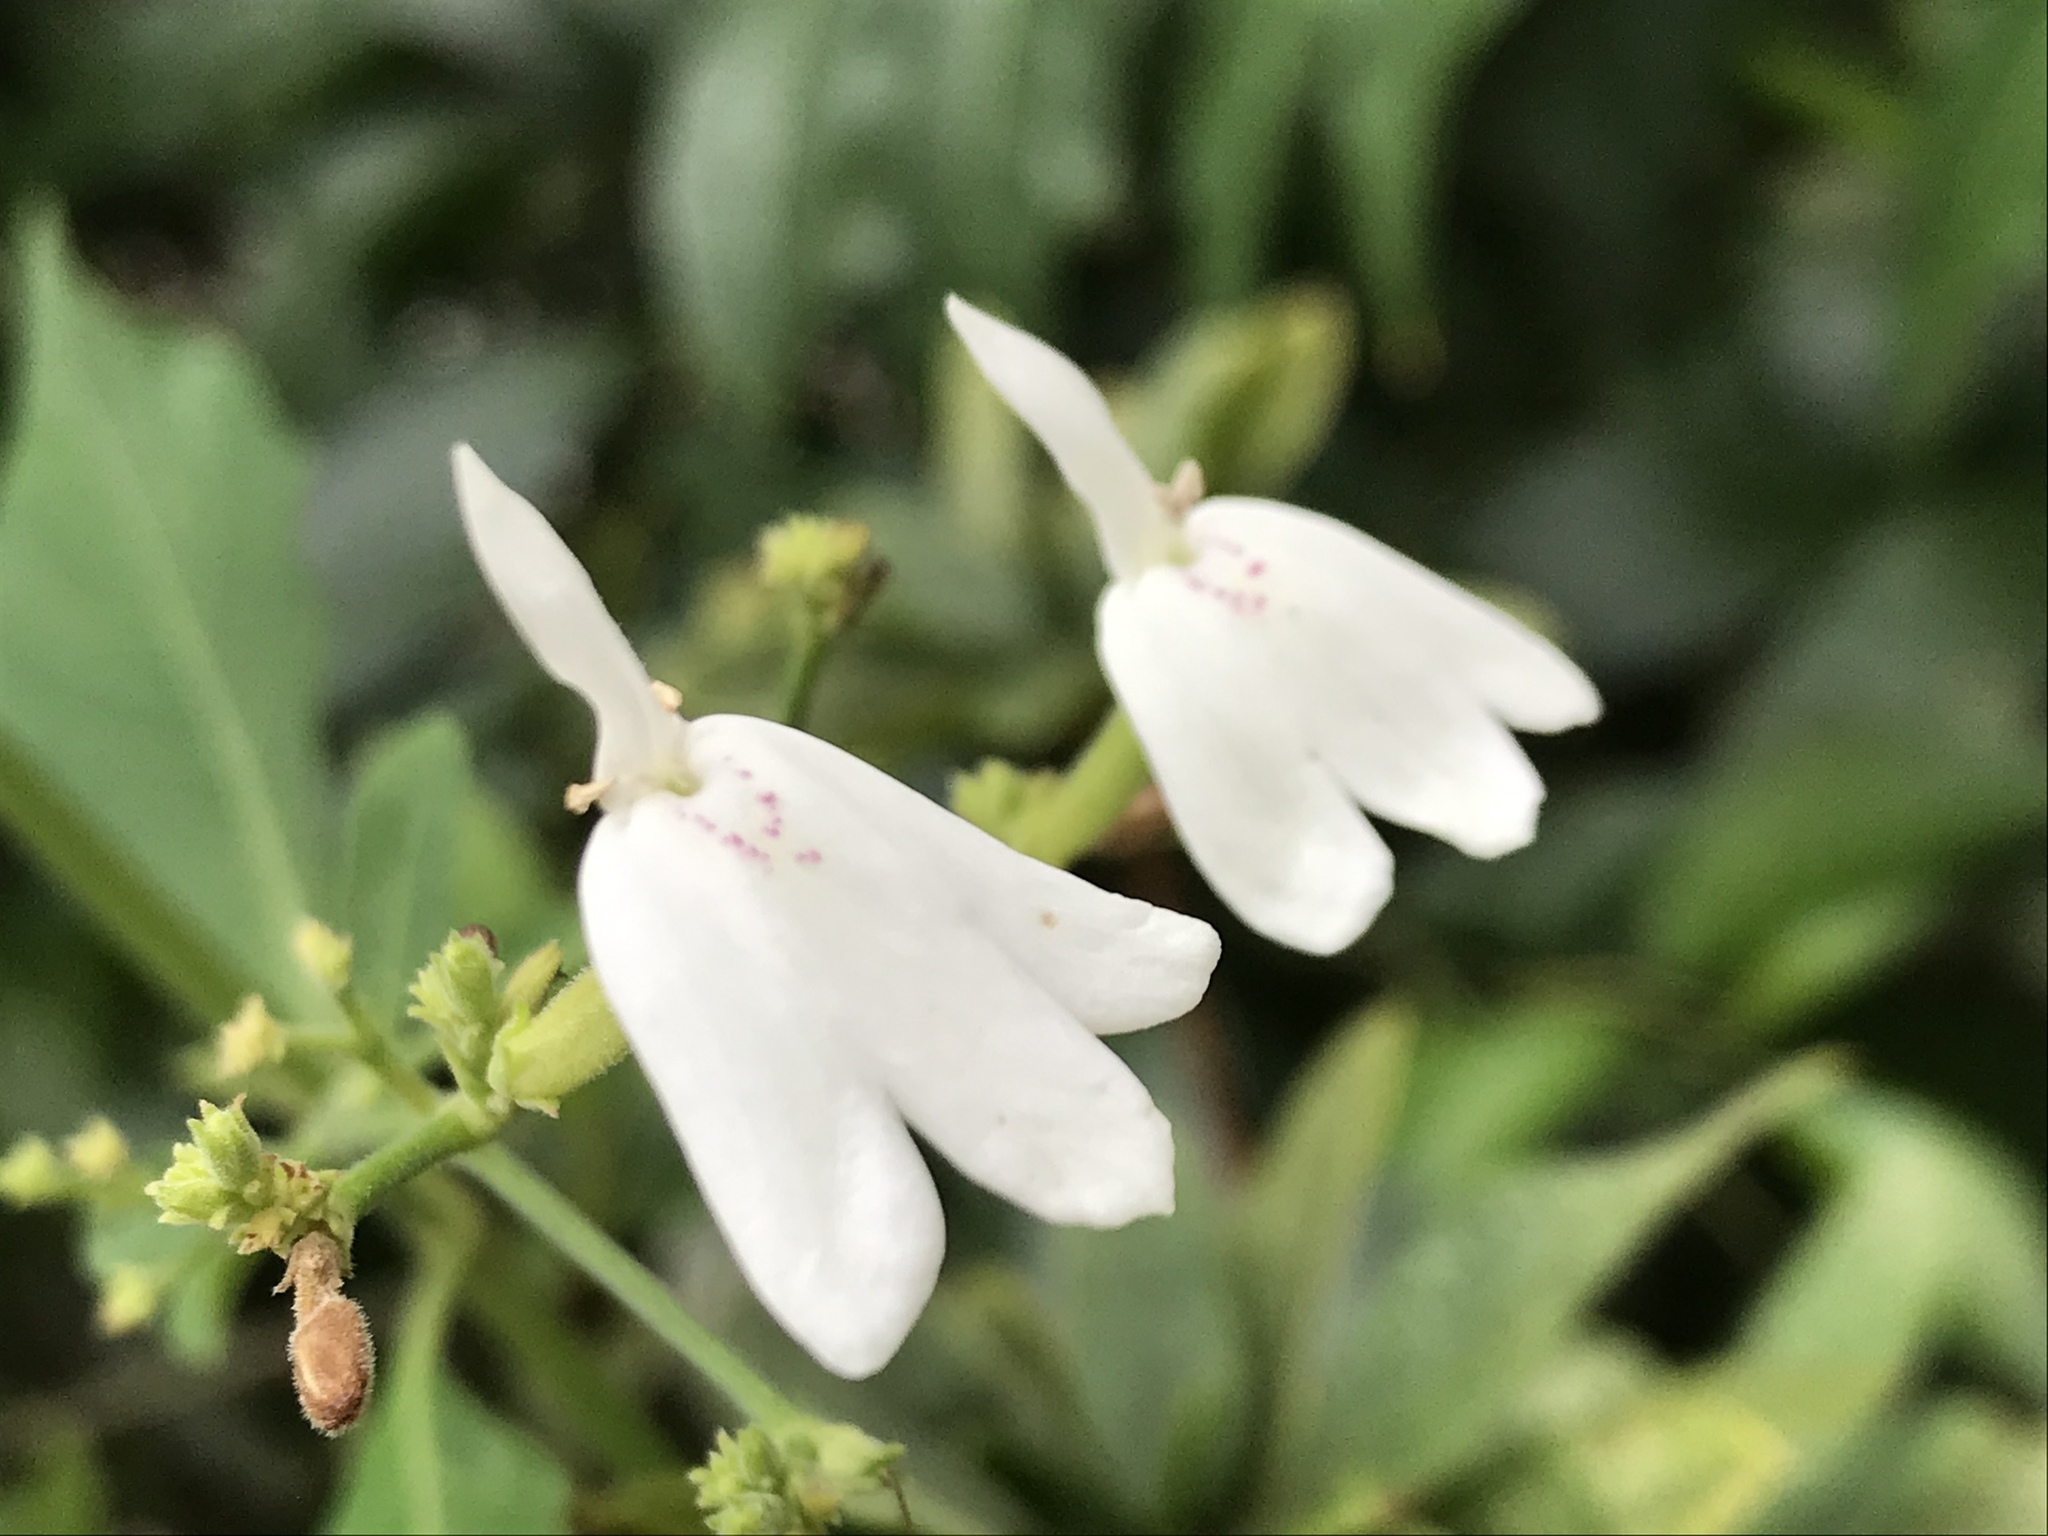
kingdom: Plantae
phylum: Tracheophyta
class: Magnoliopsida
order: Lamiales
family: Acanthaceae
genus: Rhinacanthus
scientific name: Rhinacanthus nasutus
